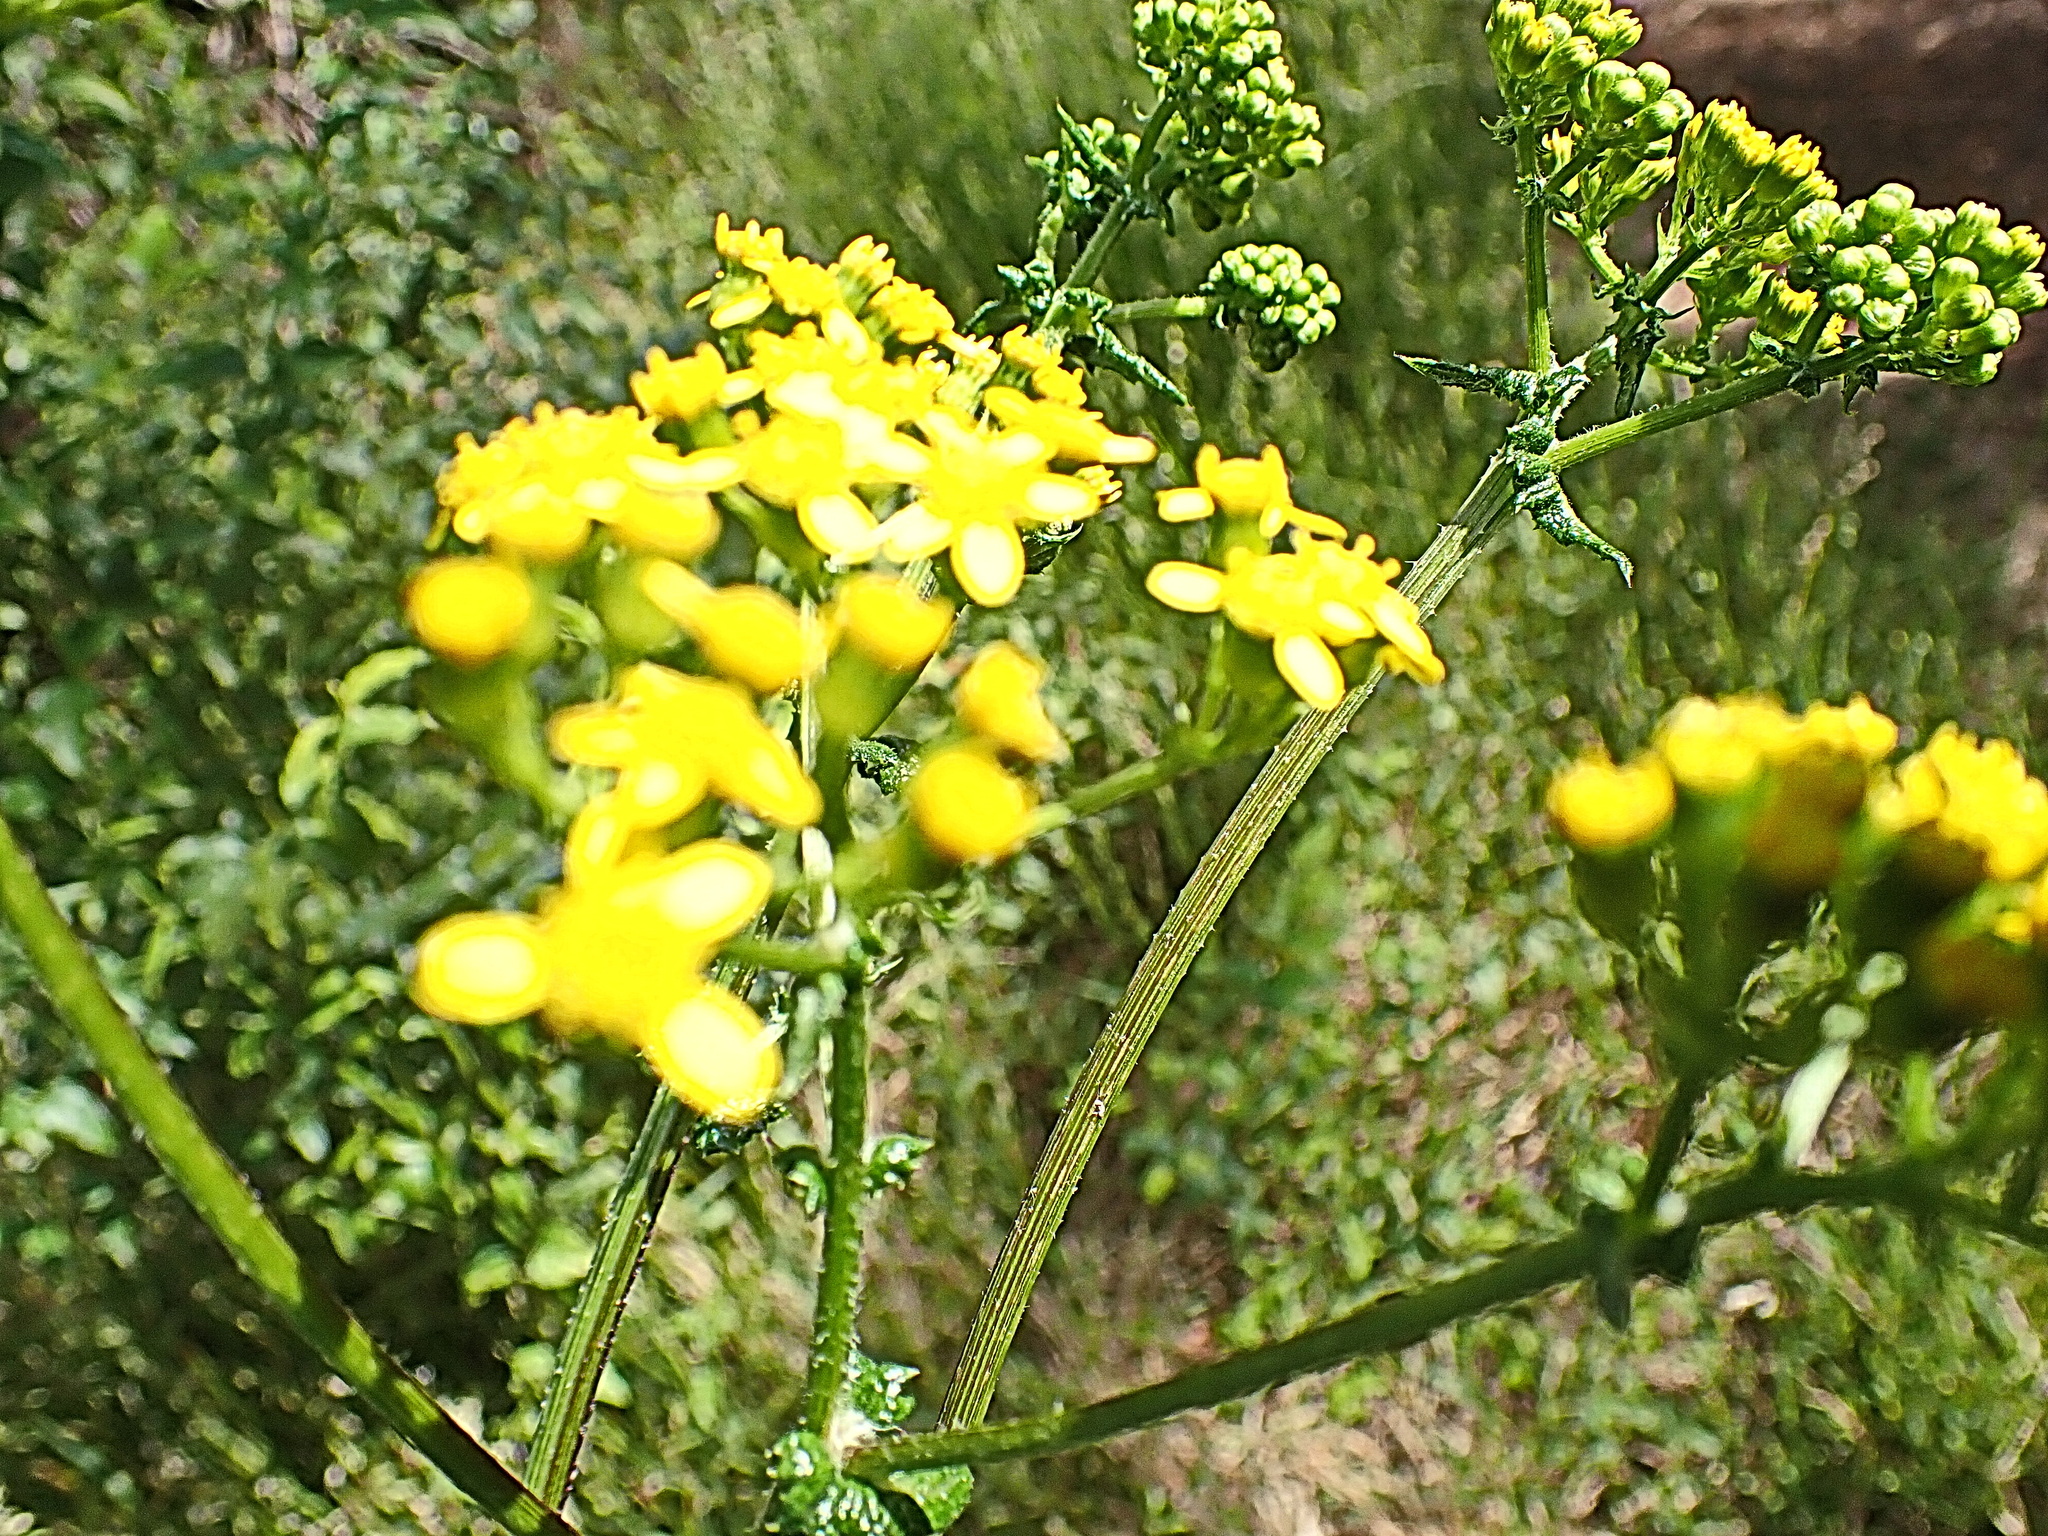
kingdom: Plantae
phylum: Tracheophyta
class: Magnoliopsida
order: Asterales
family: Asteraceae
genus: Senecio
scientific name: Senecio rigidus
